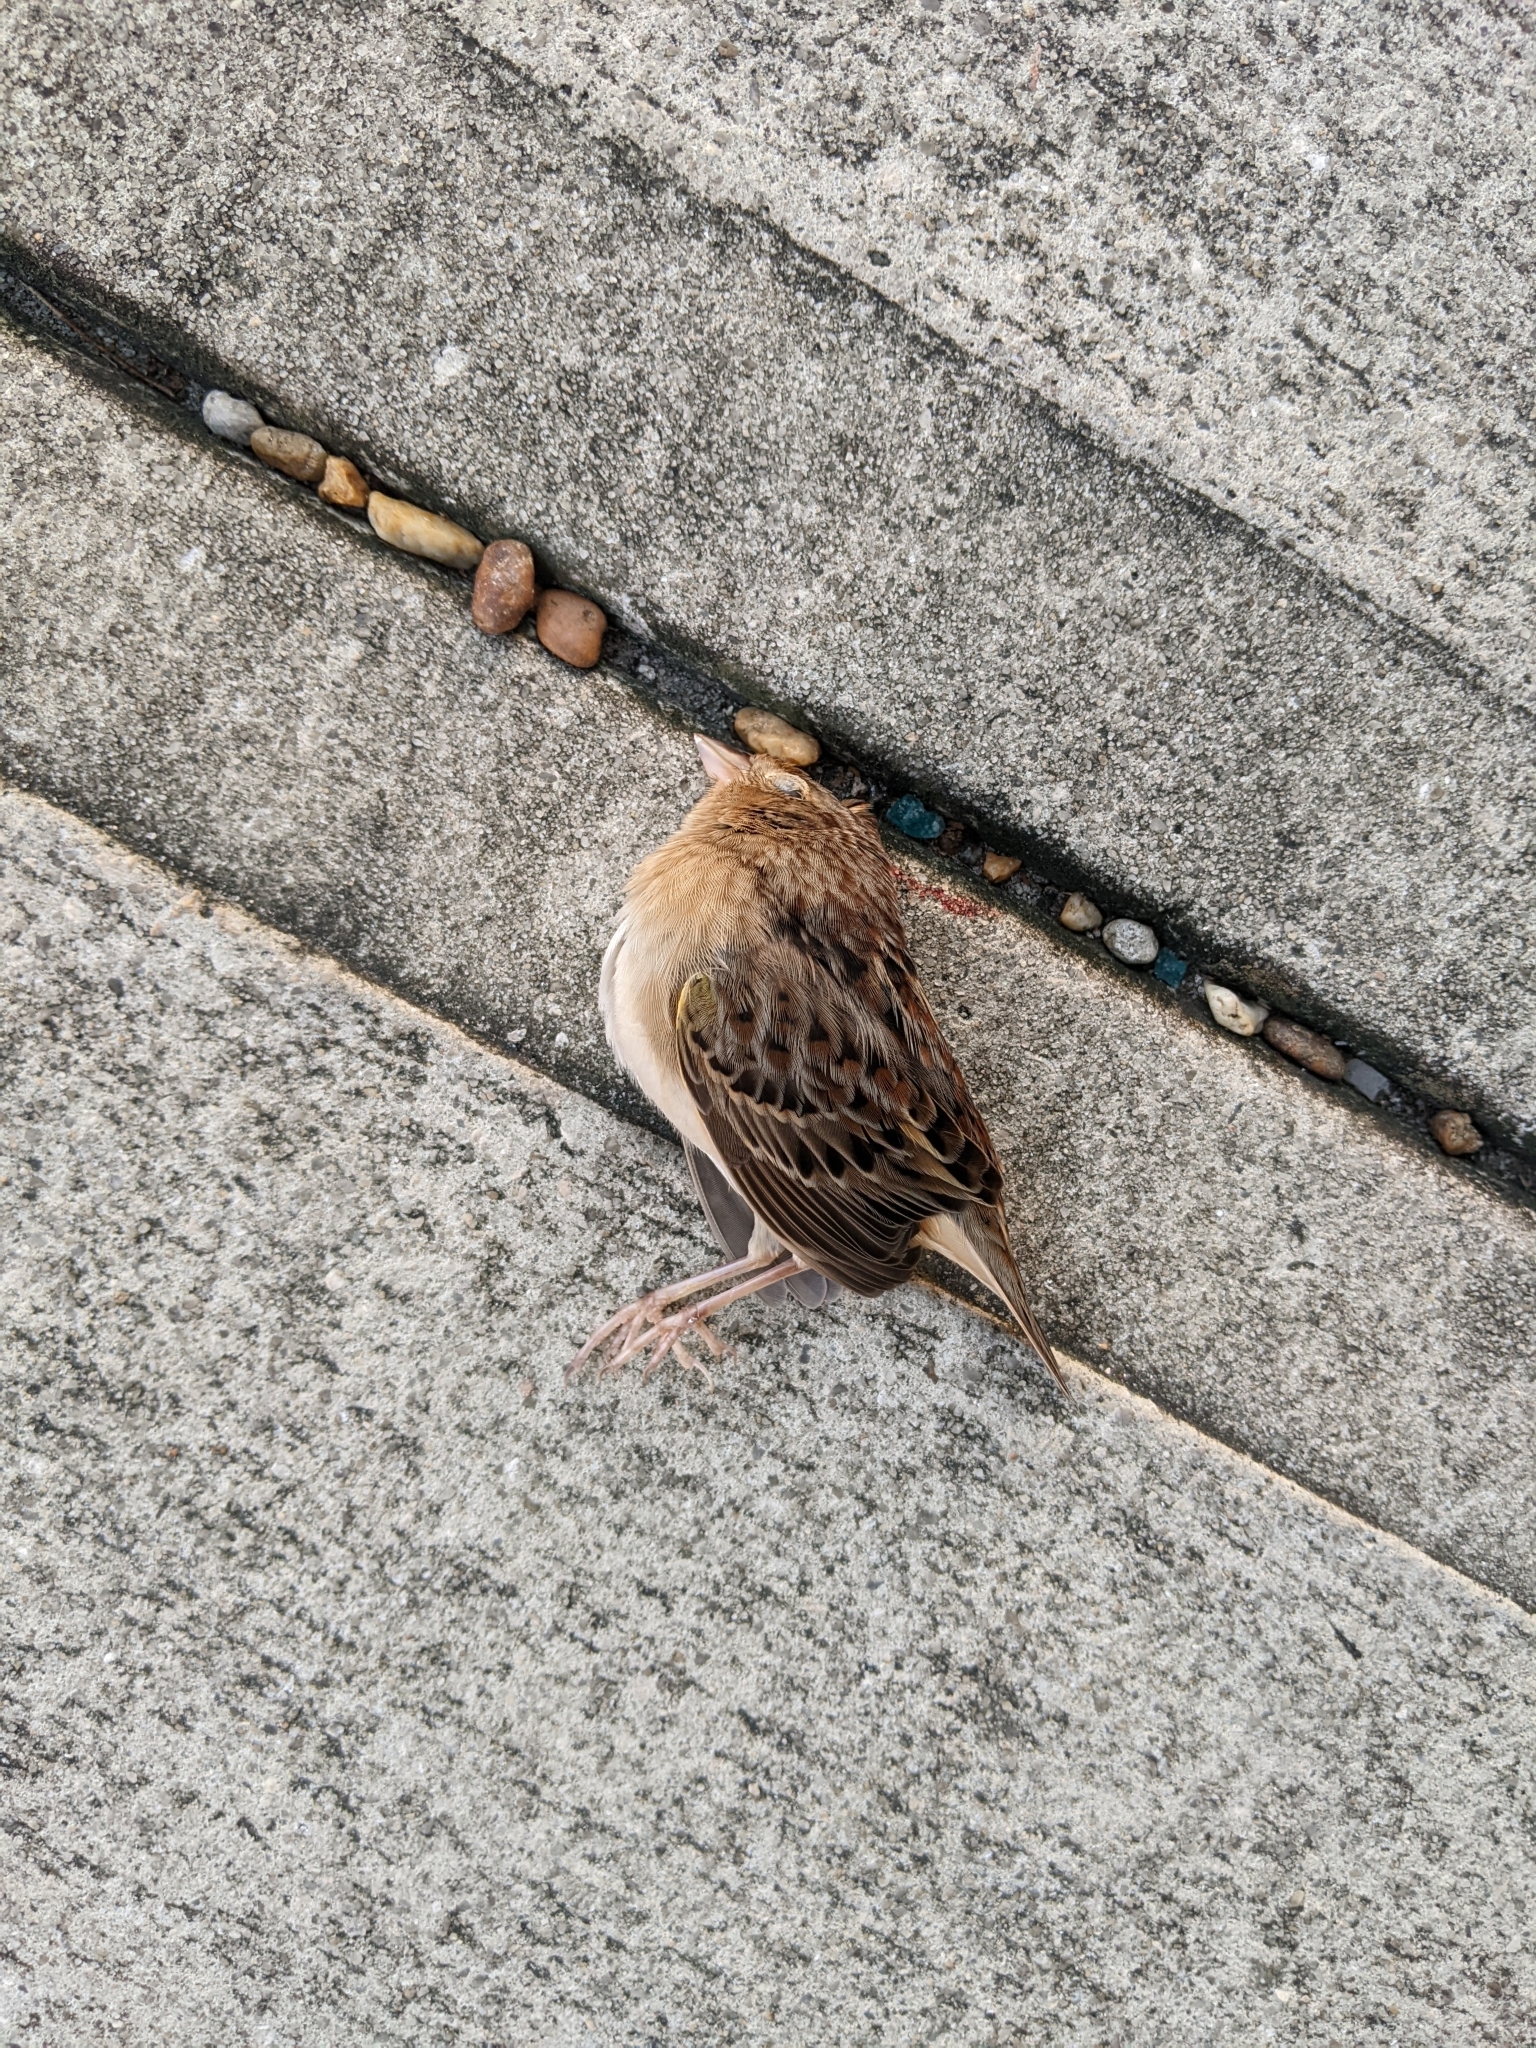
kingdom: Animalia
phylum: Chordata
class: Aves
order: Passeriformes
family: Passerellidae
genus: Ammodramus
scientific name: Ammodramus savannarum
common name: Grasshopper sparrow
